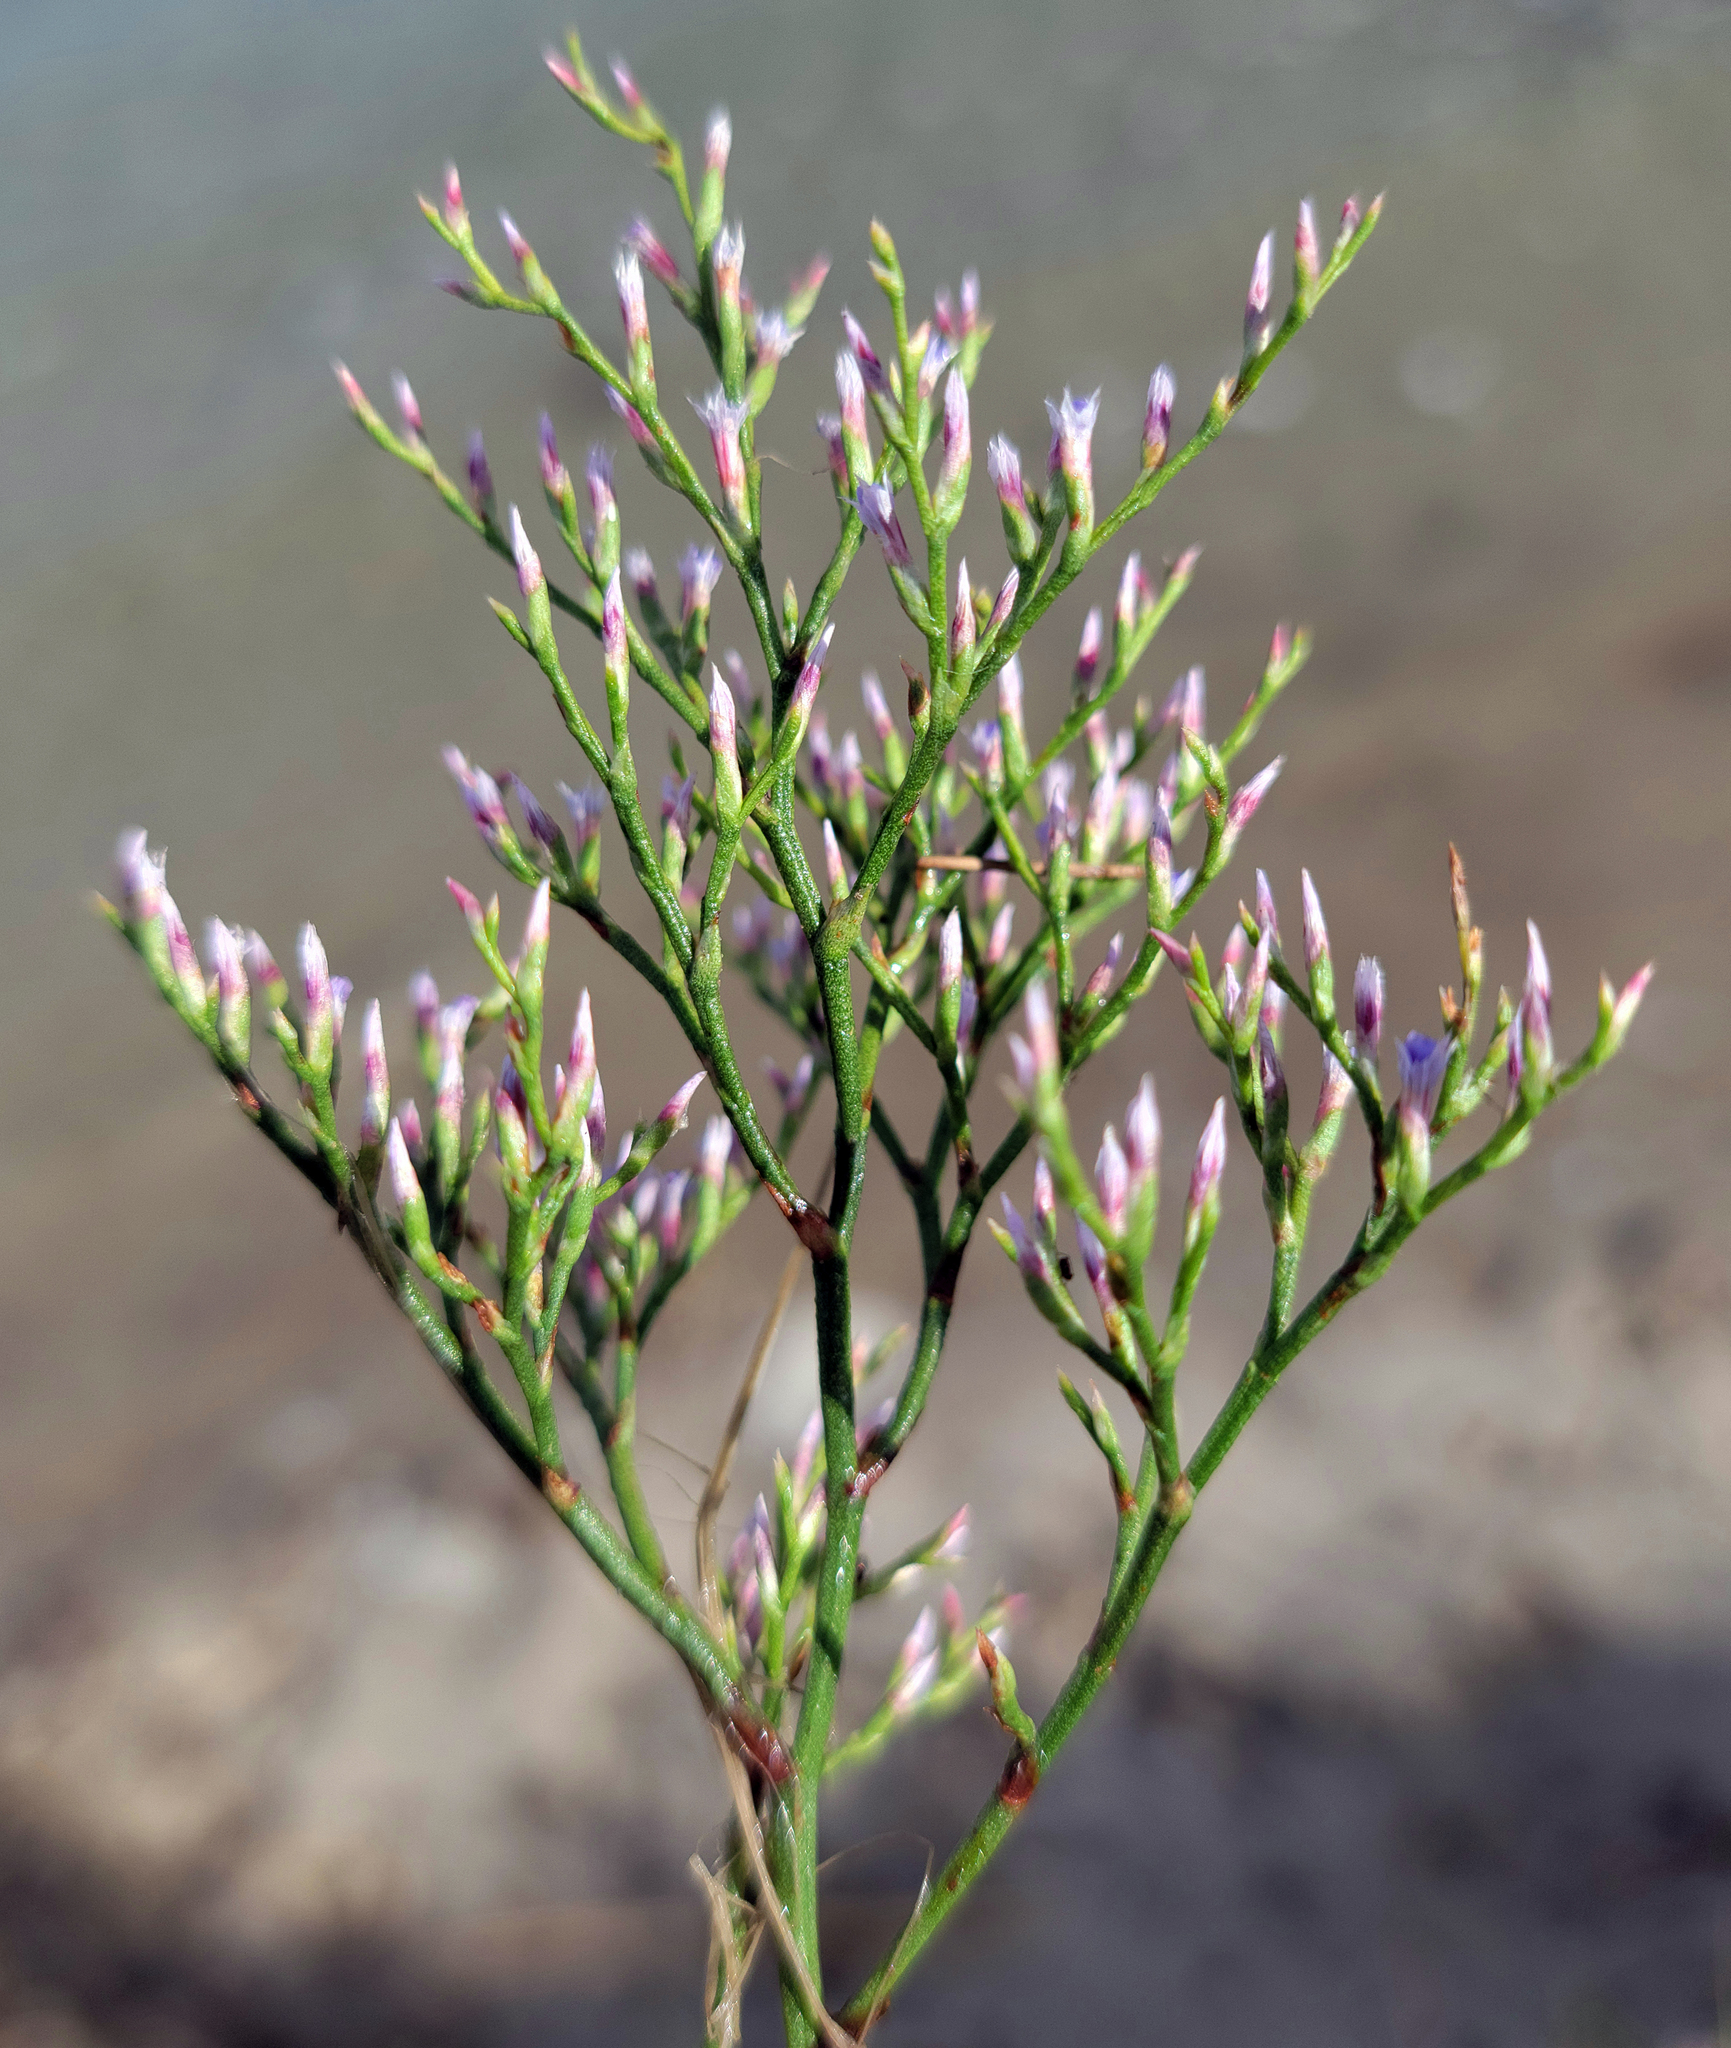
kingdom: Plantae
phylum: Tracheophyta
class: Magnoliopsida
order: Caryophyllales
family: Plumbaginaceae
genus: Limonium
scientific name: Limonium carolinianum
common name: Carolina sea lavender
